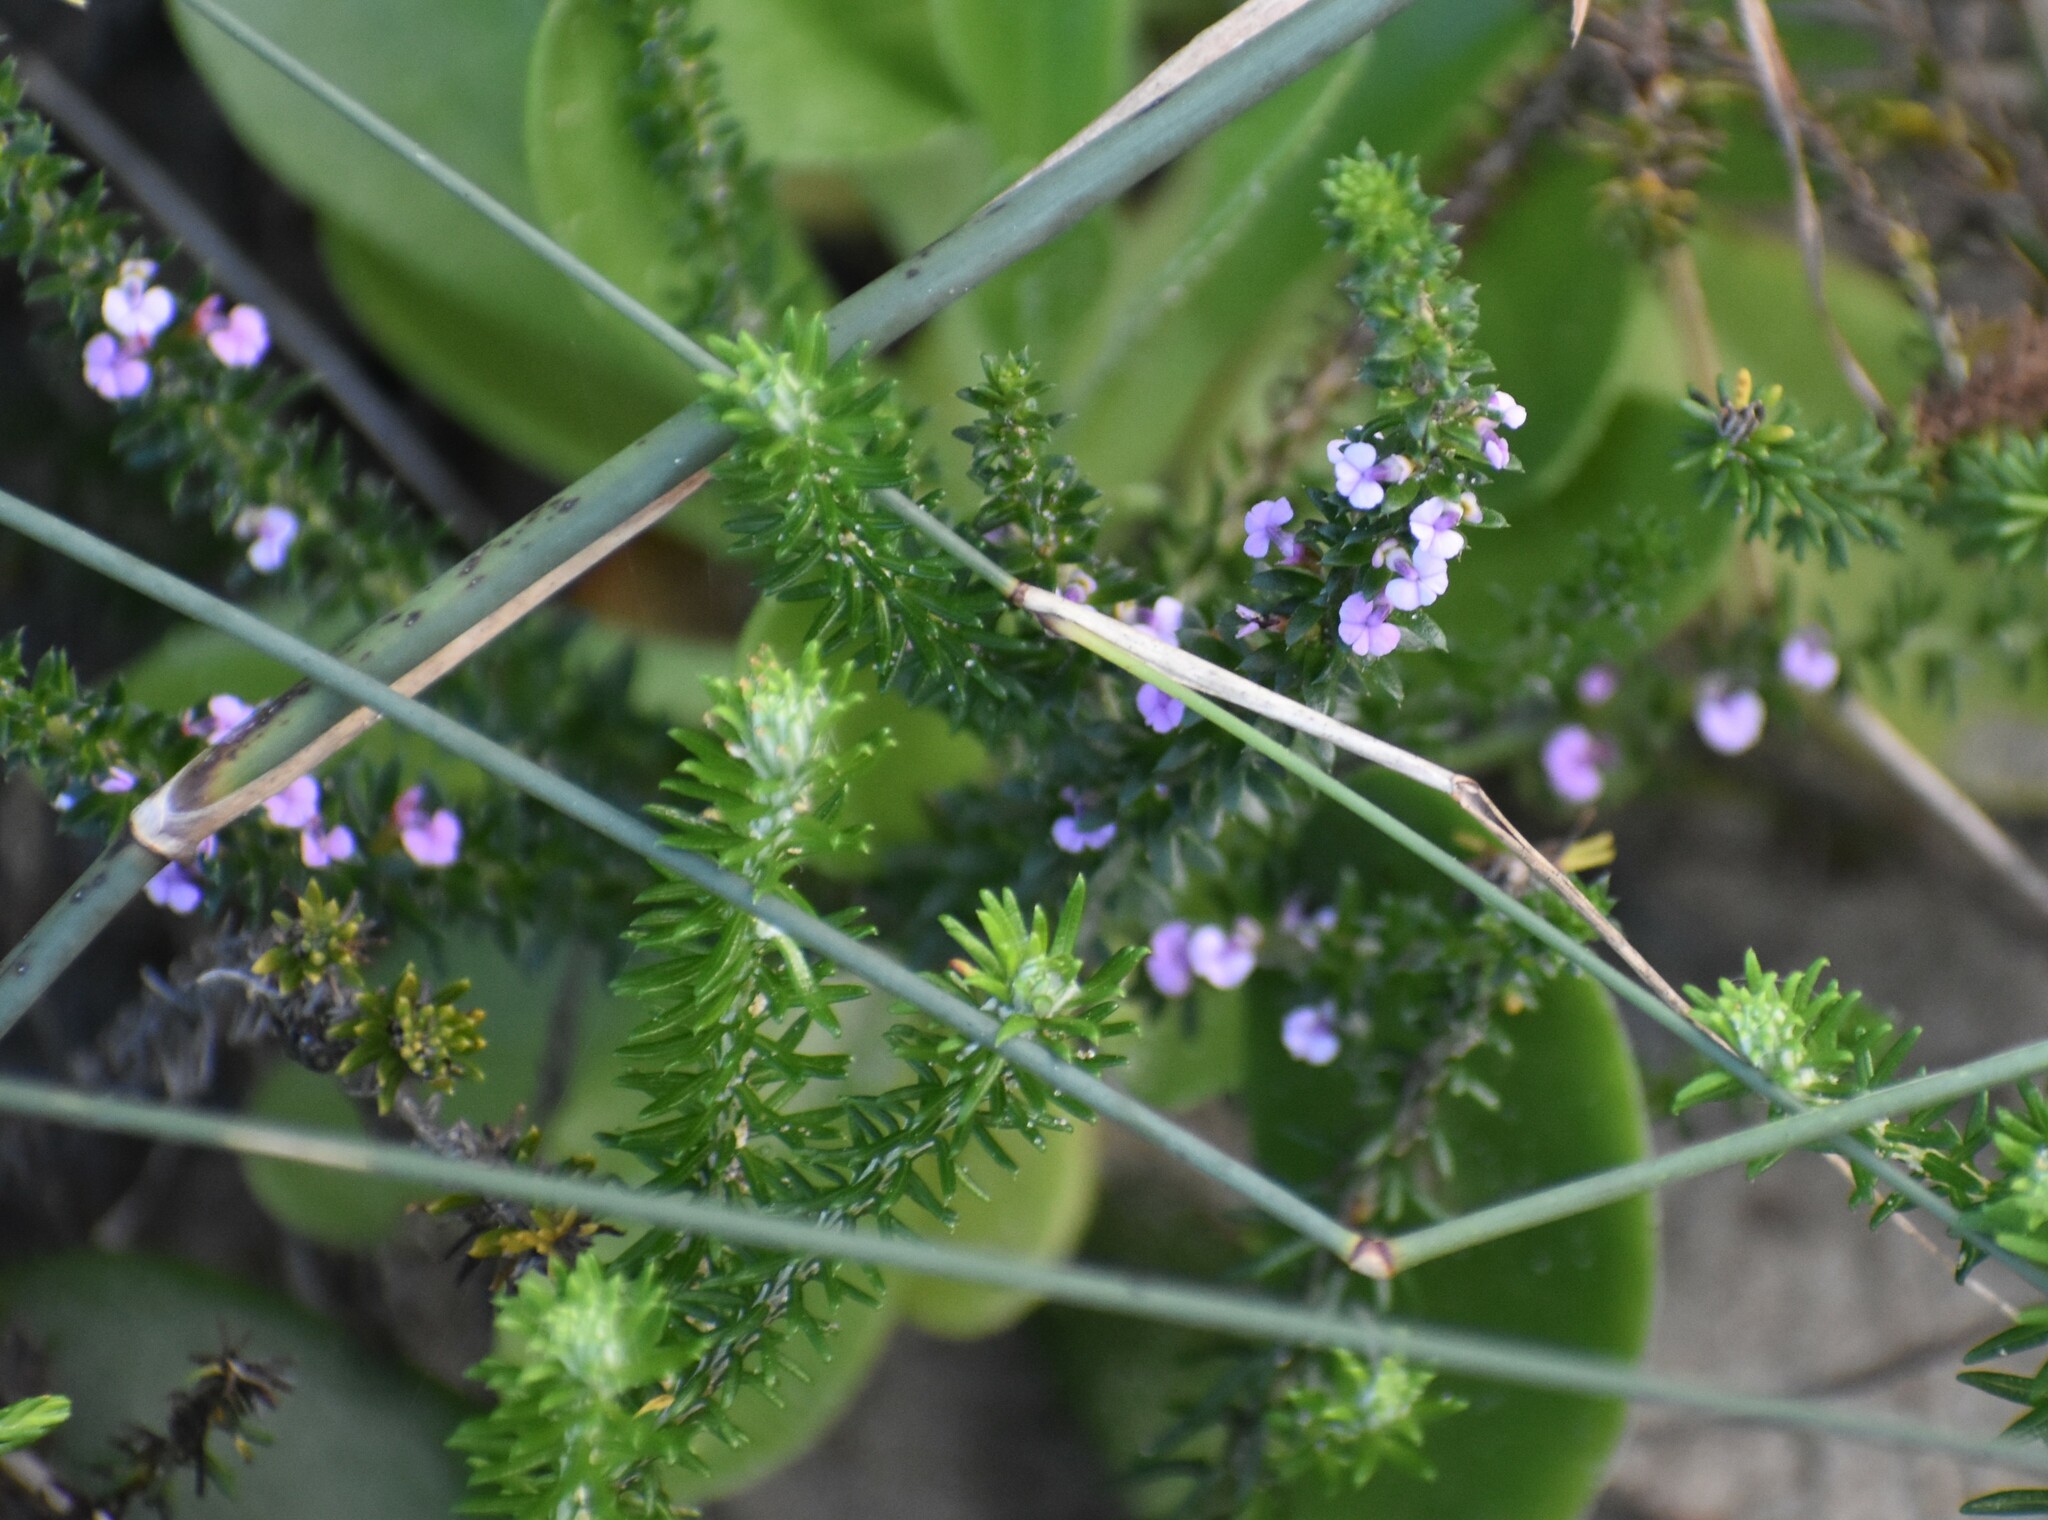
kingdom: Plantae
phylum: Tracheophyta
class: Magnoliopsida
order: Fabales
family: Polygalaceae
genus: Muraltia
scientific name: Muraltia squarrosa
